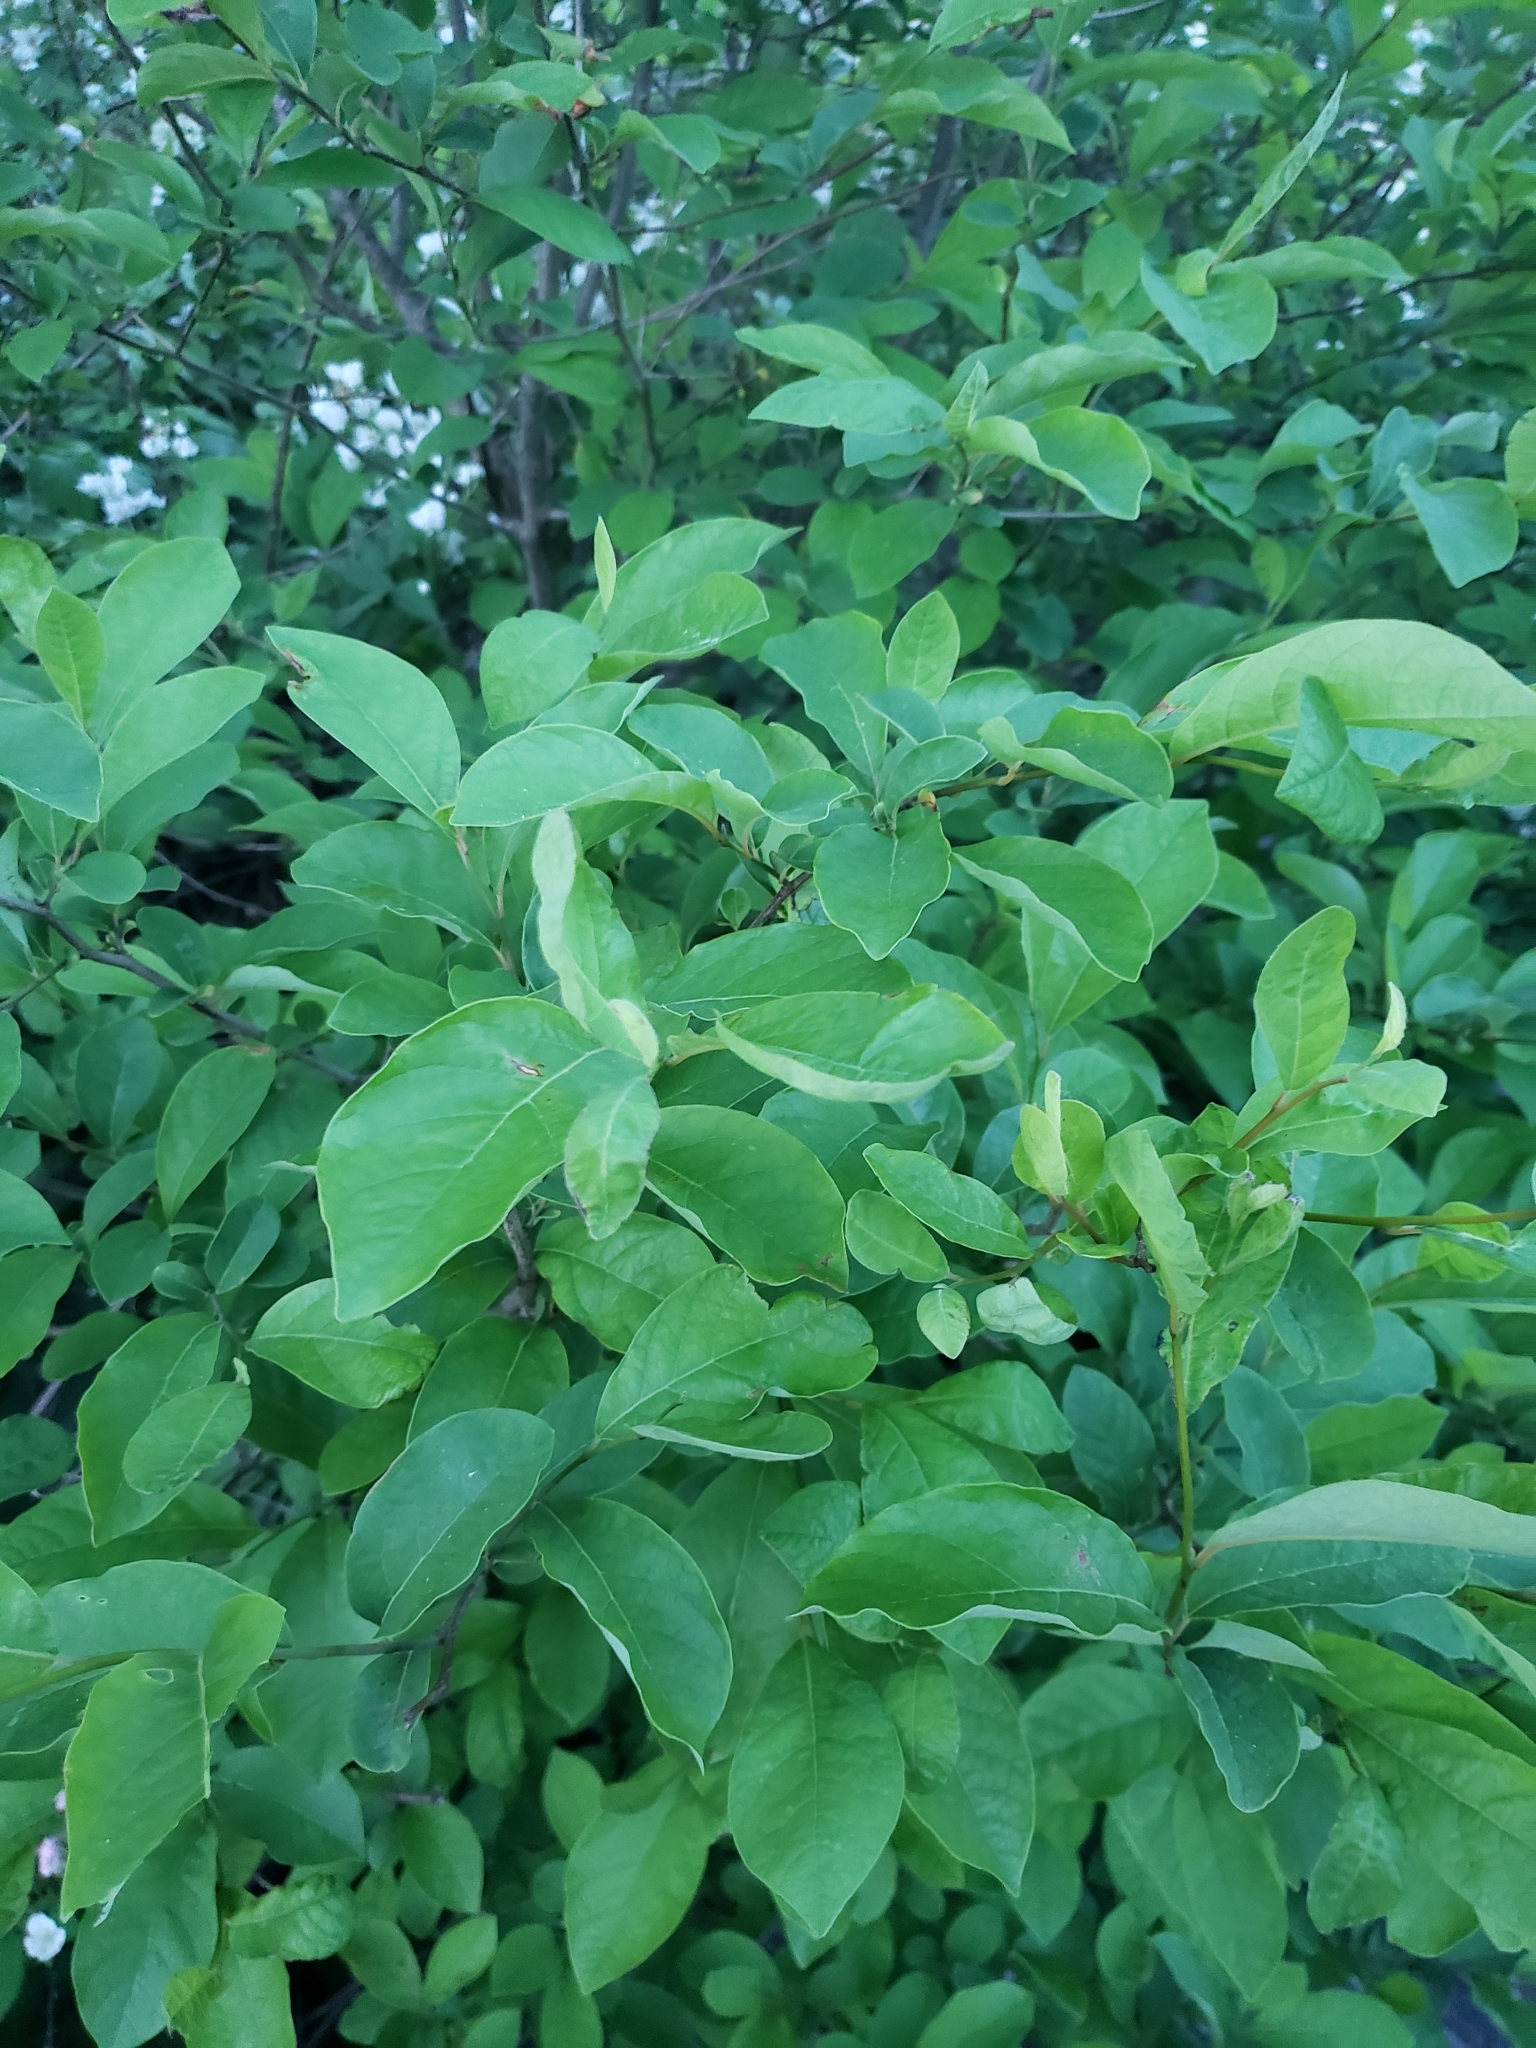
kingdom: Plantae
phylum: Tracheophyta
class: Magnoliopsida
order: Laurales
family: Lauraceae
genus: Lindera
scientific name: Lindera benzoin
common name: Spicebush
